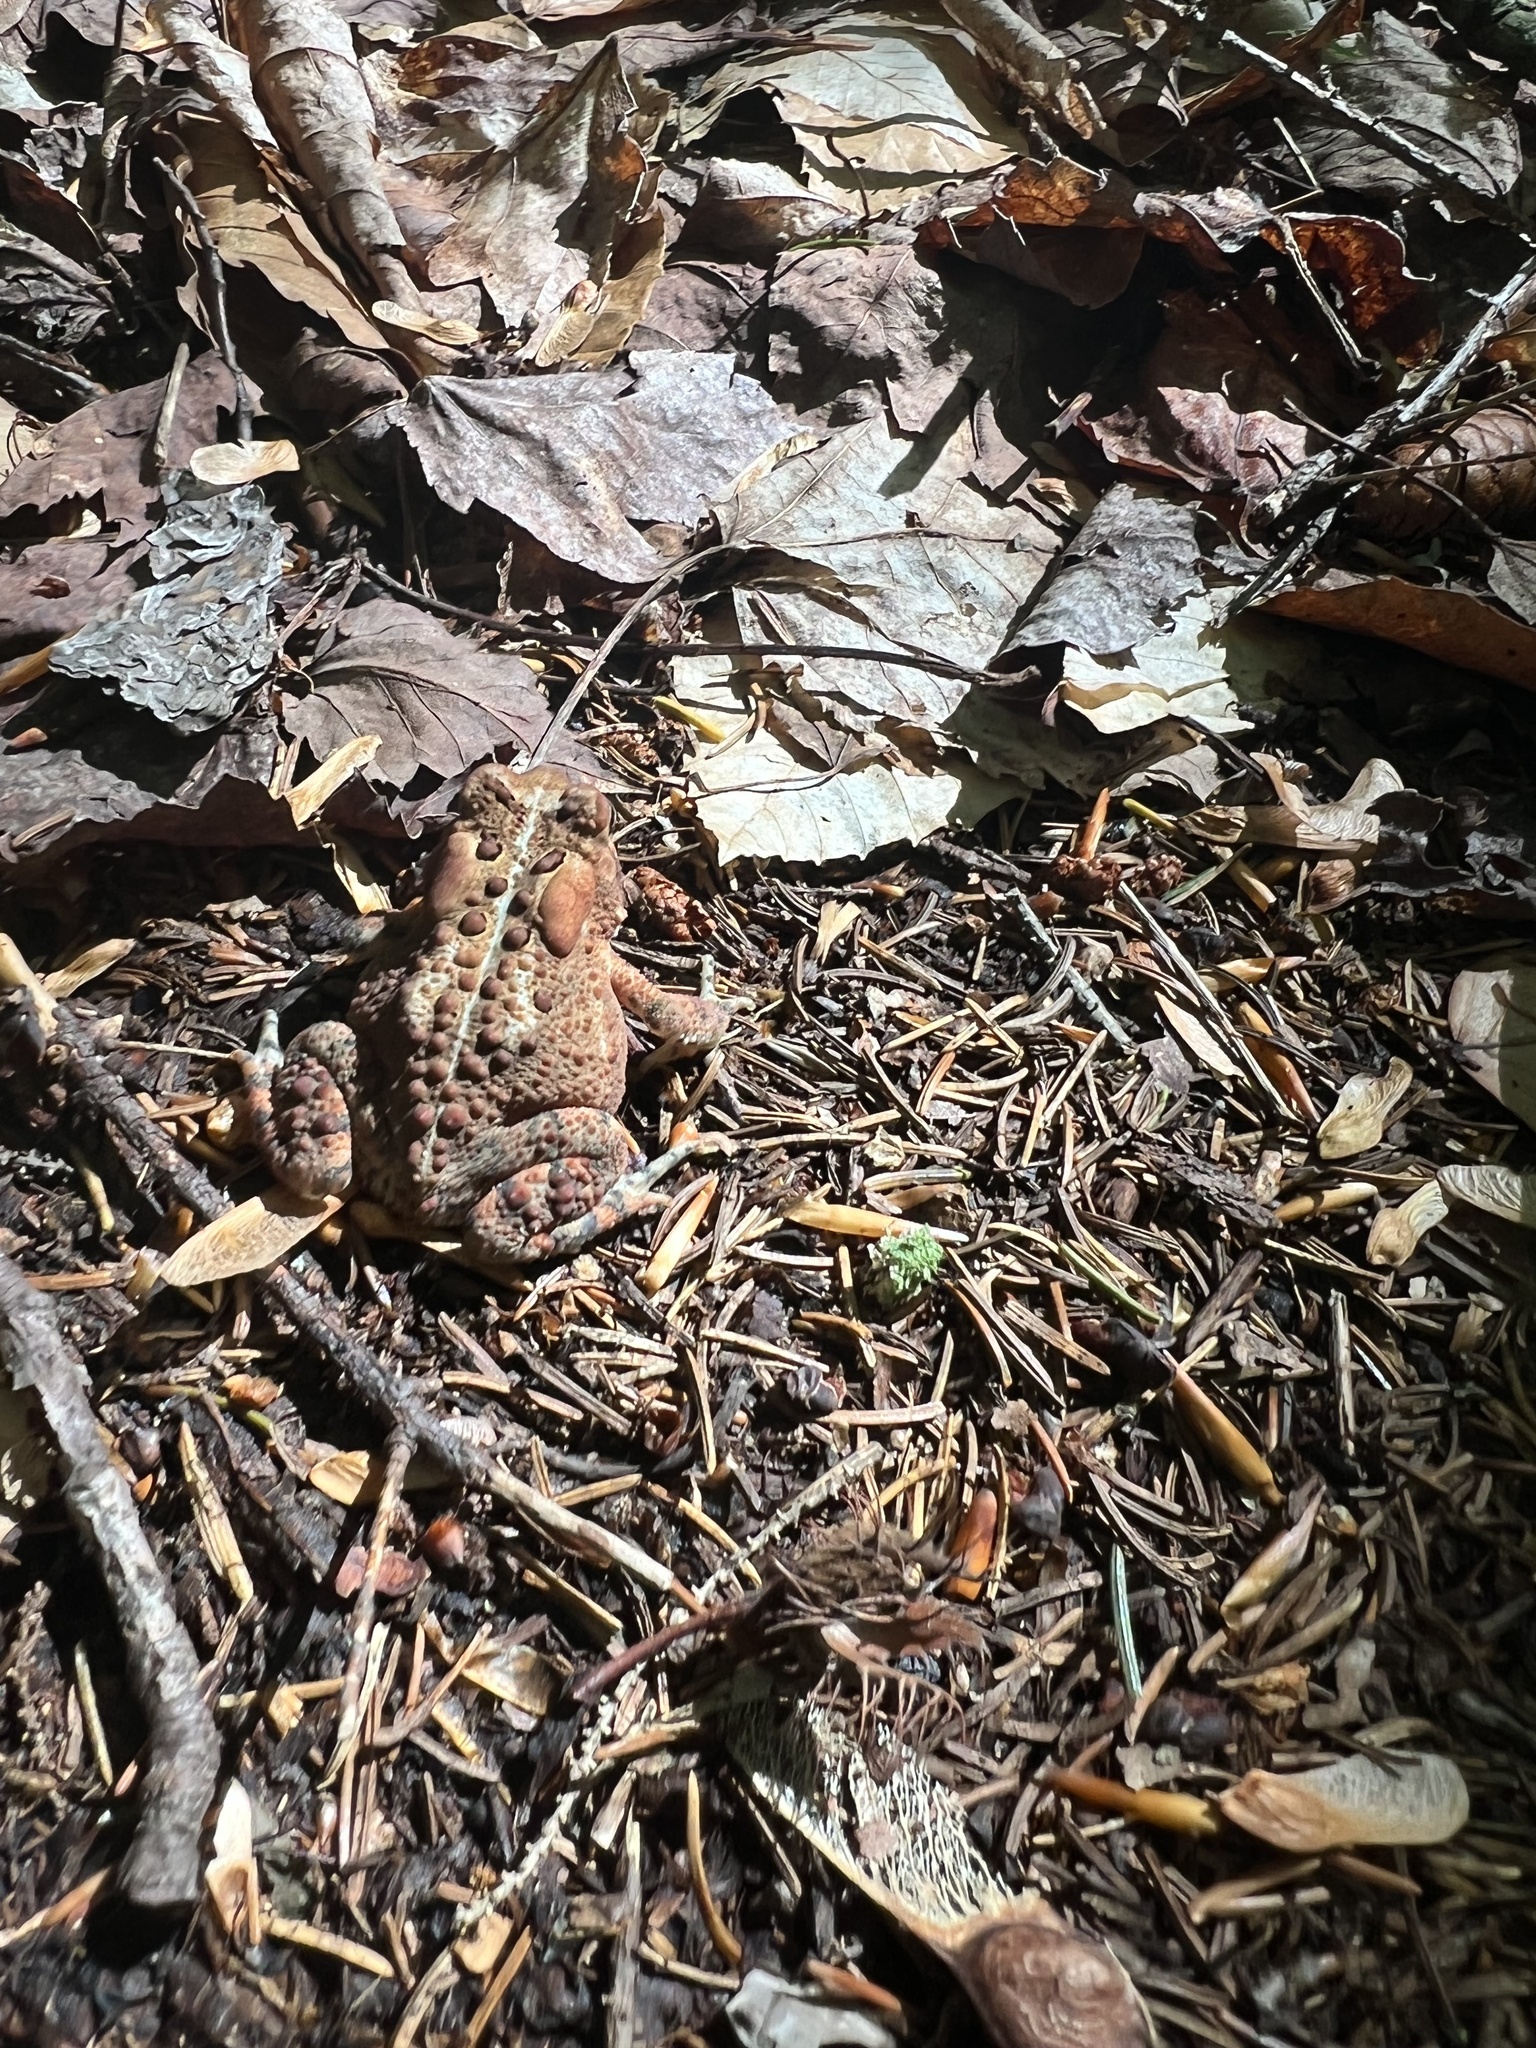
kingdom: Animalia
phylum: Chordata
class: Amphibia
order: Anura
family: Bufonidae
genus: Anaxyrus
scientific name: Anaxyrus americanus
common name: American toad
